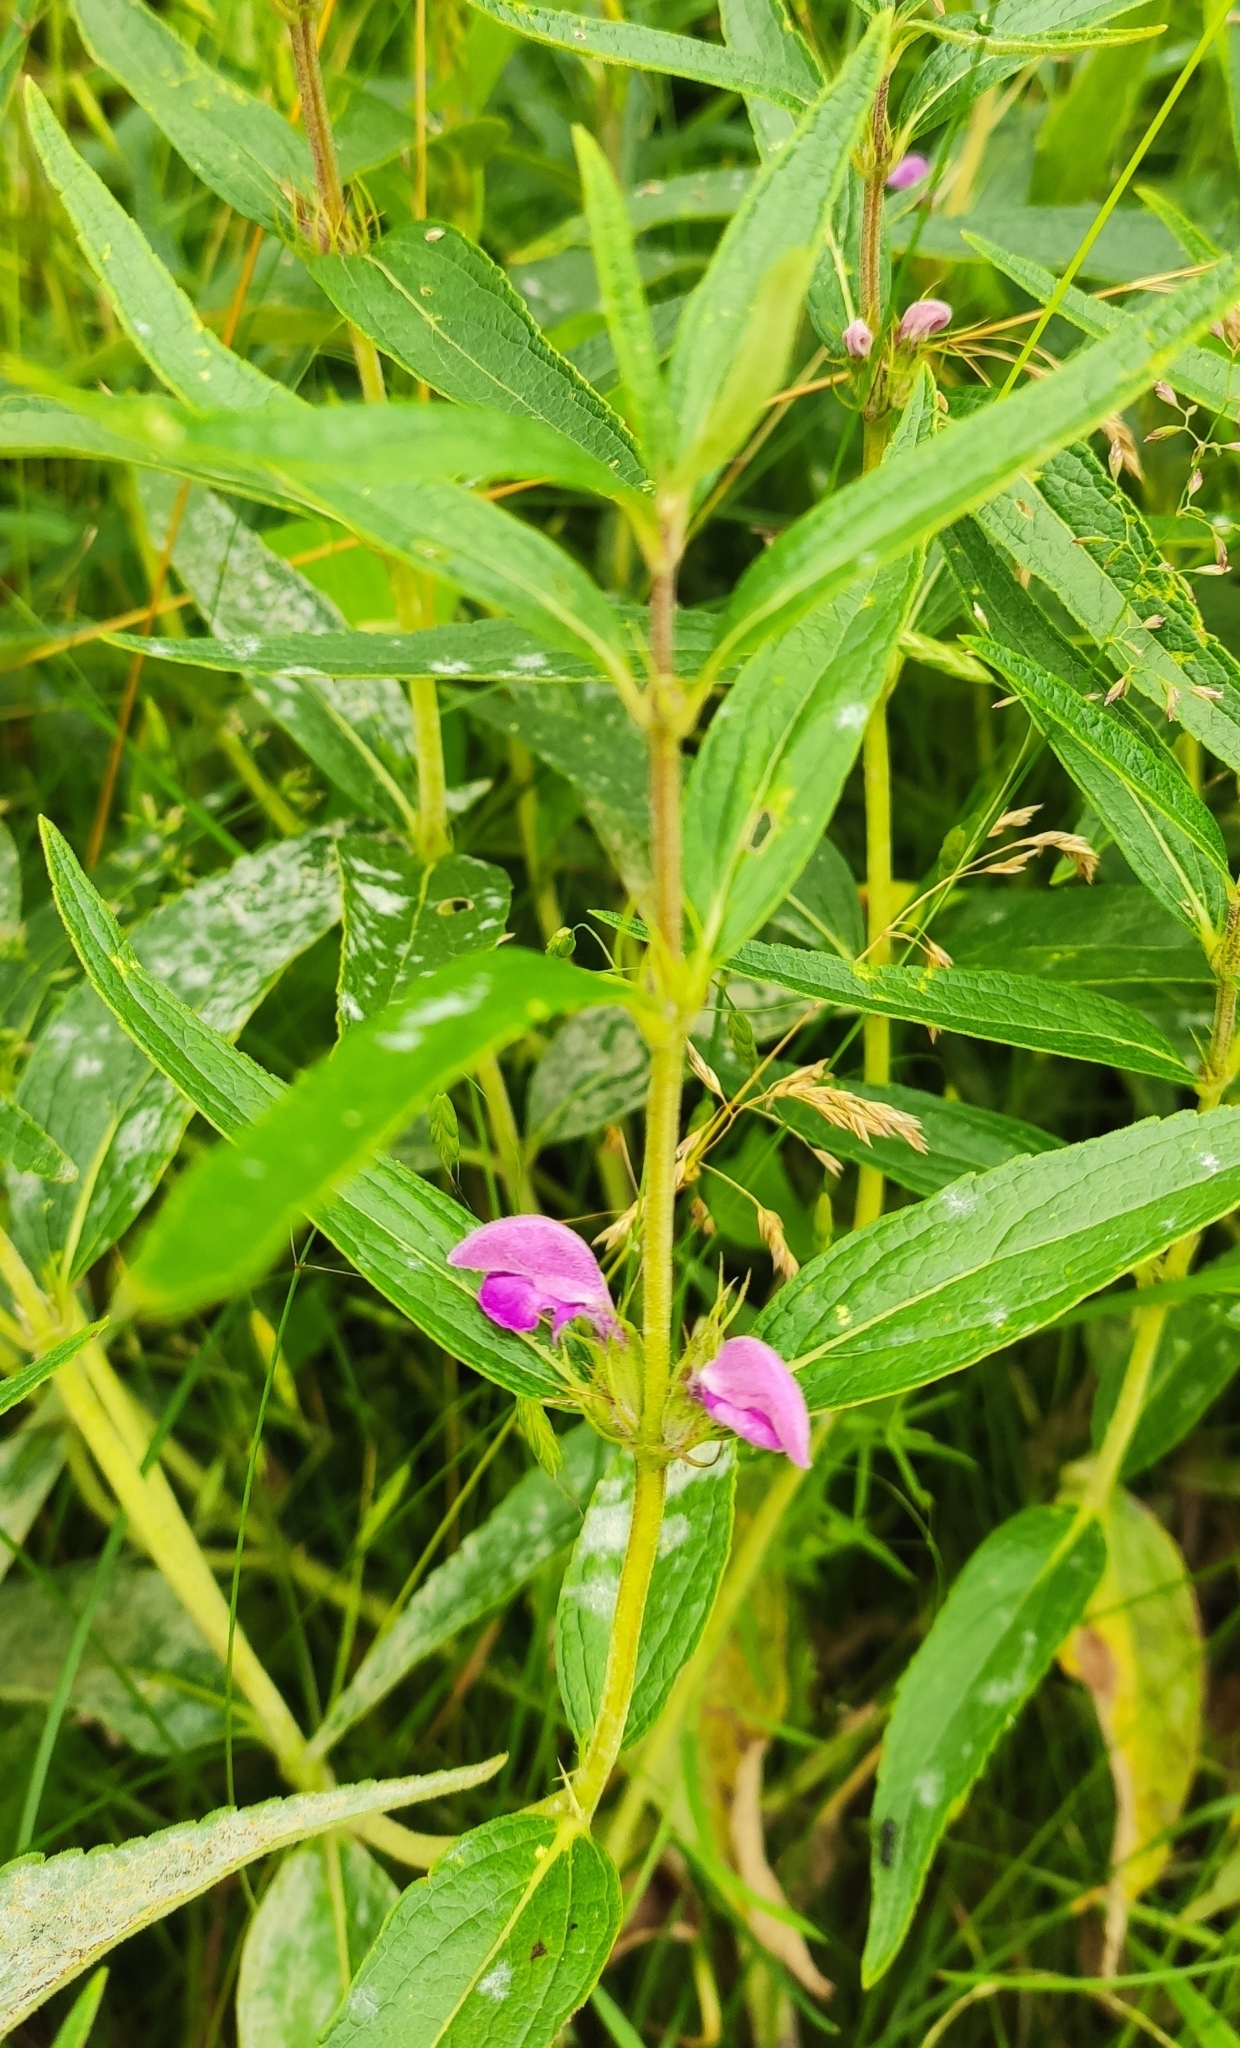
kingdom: Plantae
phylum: Tracheophyta
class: Magnoliopsida
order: Lamiales
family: Lamiaceae
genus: Phlomis
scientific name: Phlomis herba-venti
